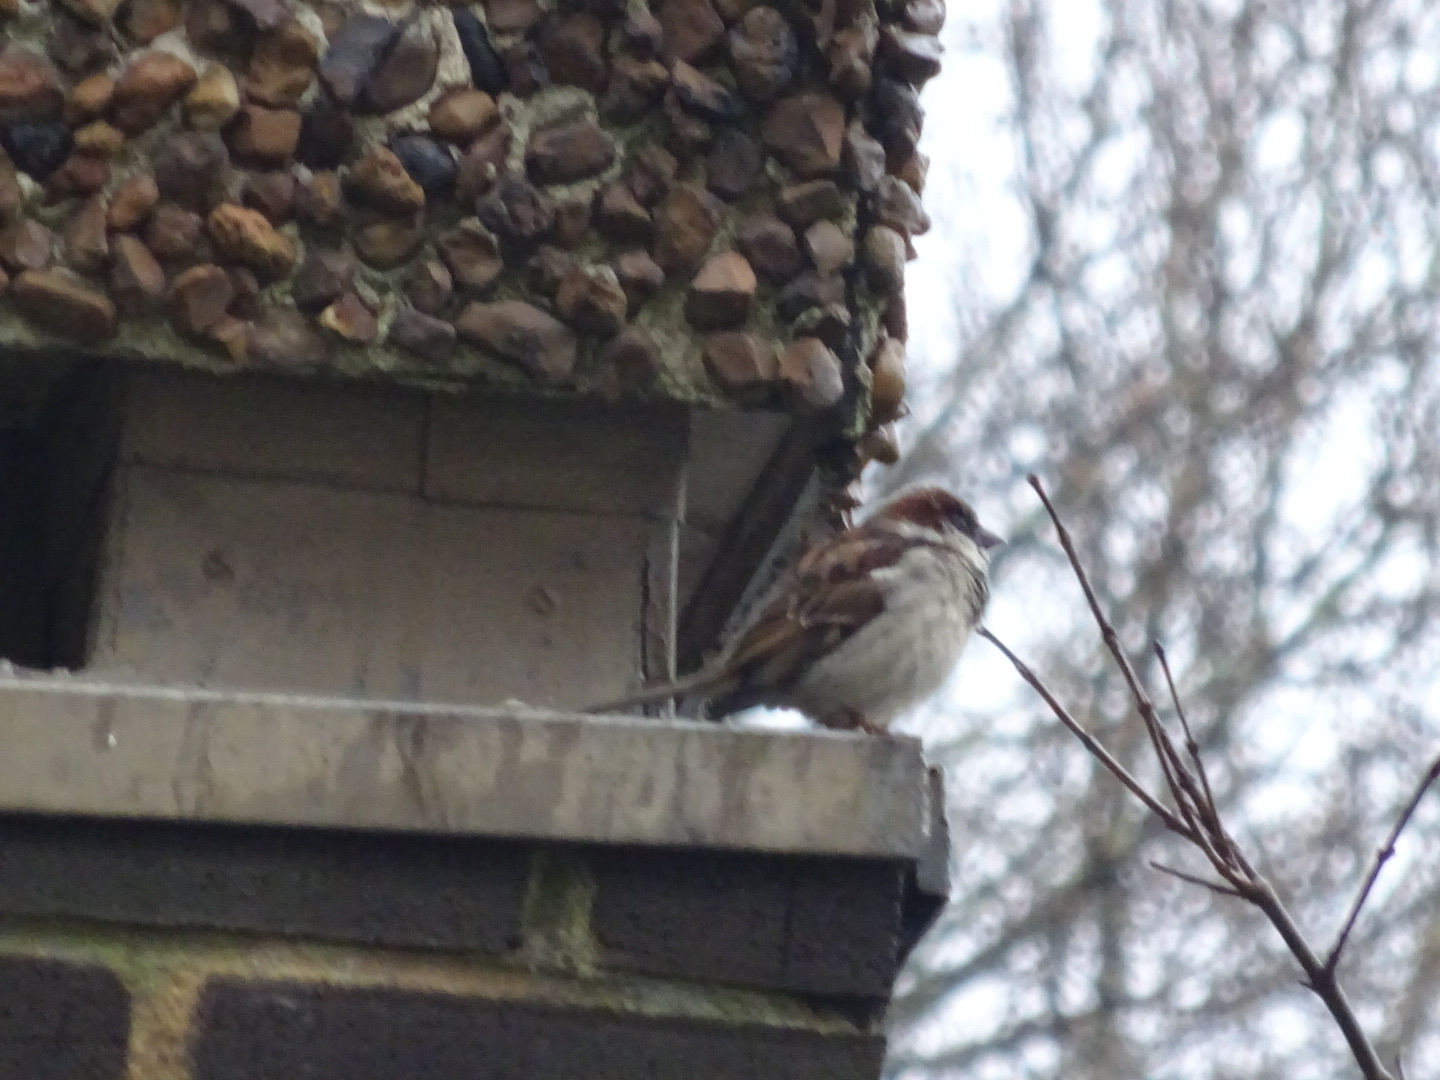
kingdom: Animalia
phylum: Chordata
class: Aves
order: Passeriformes
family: Passeridae
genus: Passer
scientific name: Passer domesticus
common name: House sparrow
